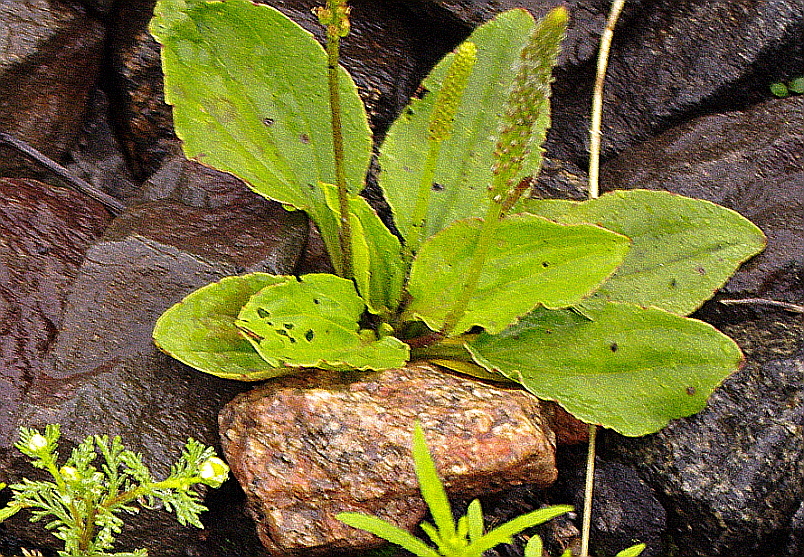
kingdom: Plantae
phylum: Tracheophyta
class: Magnoliopsida
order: Lamiales
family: Plantaginaceae
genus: Plantago
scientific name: Plantago major
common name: Common plantain
